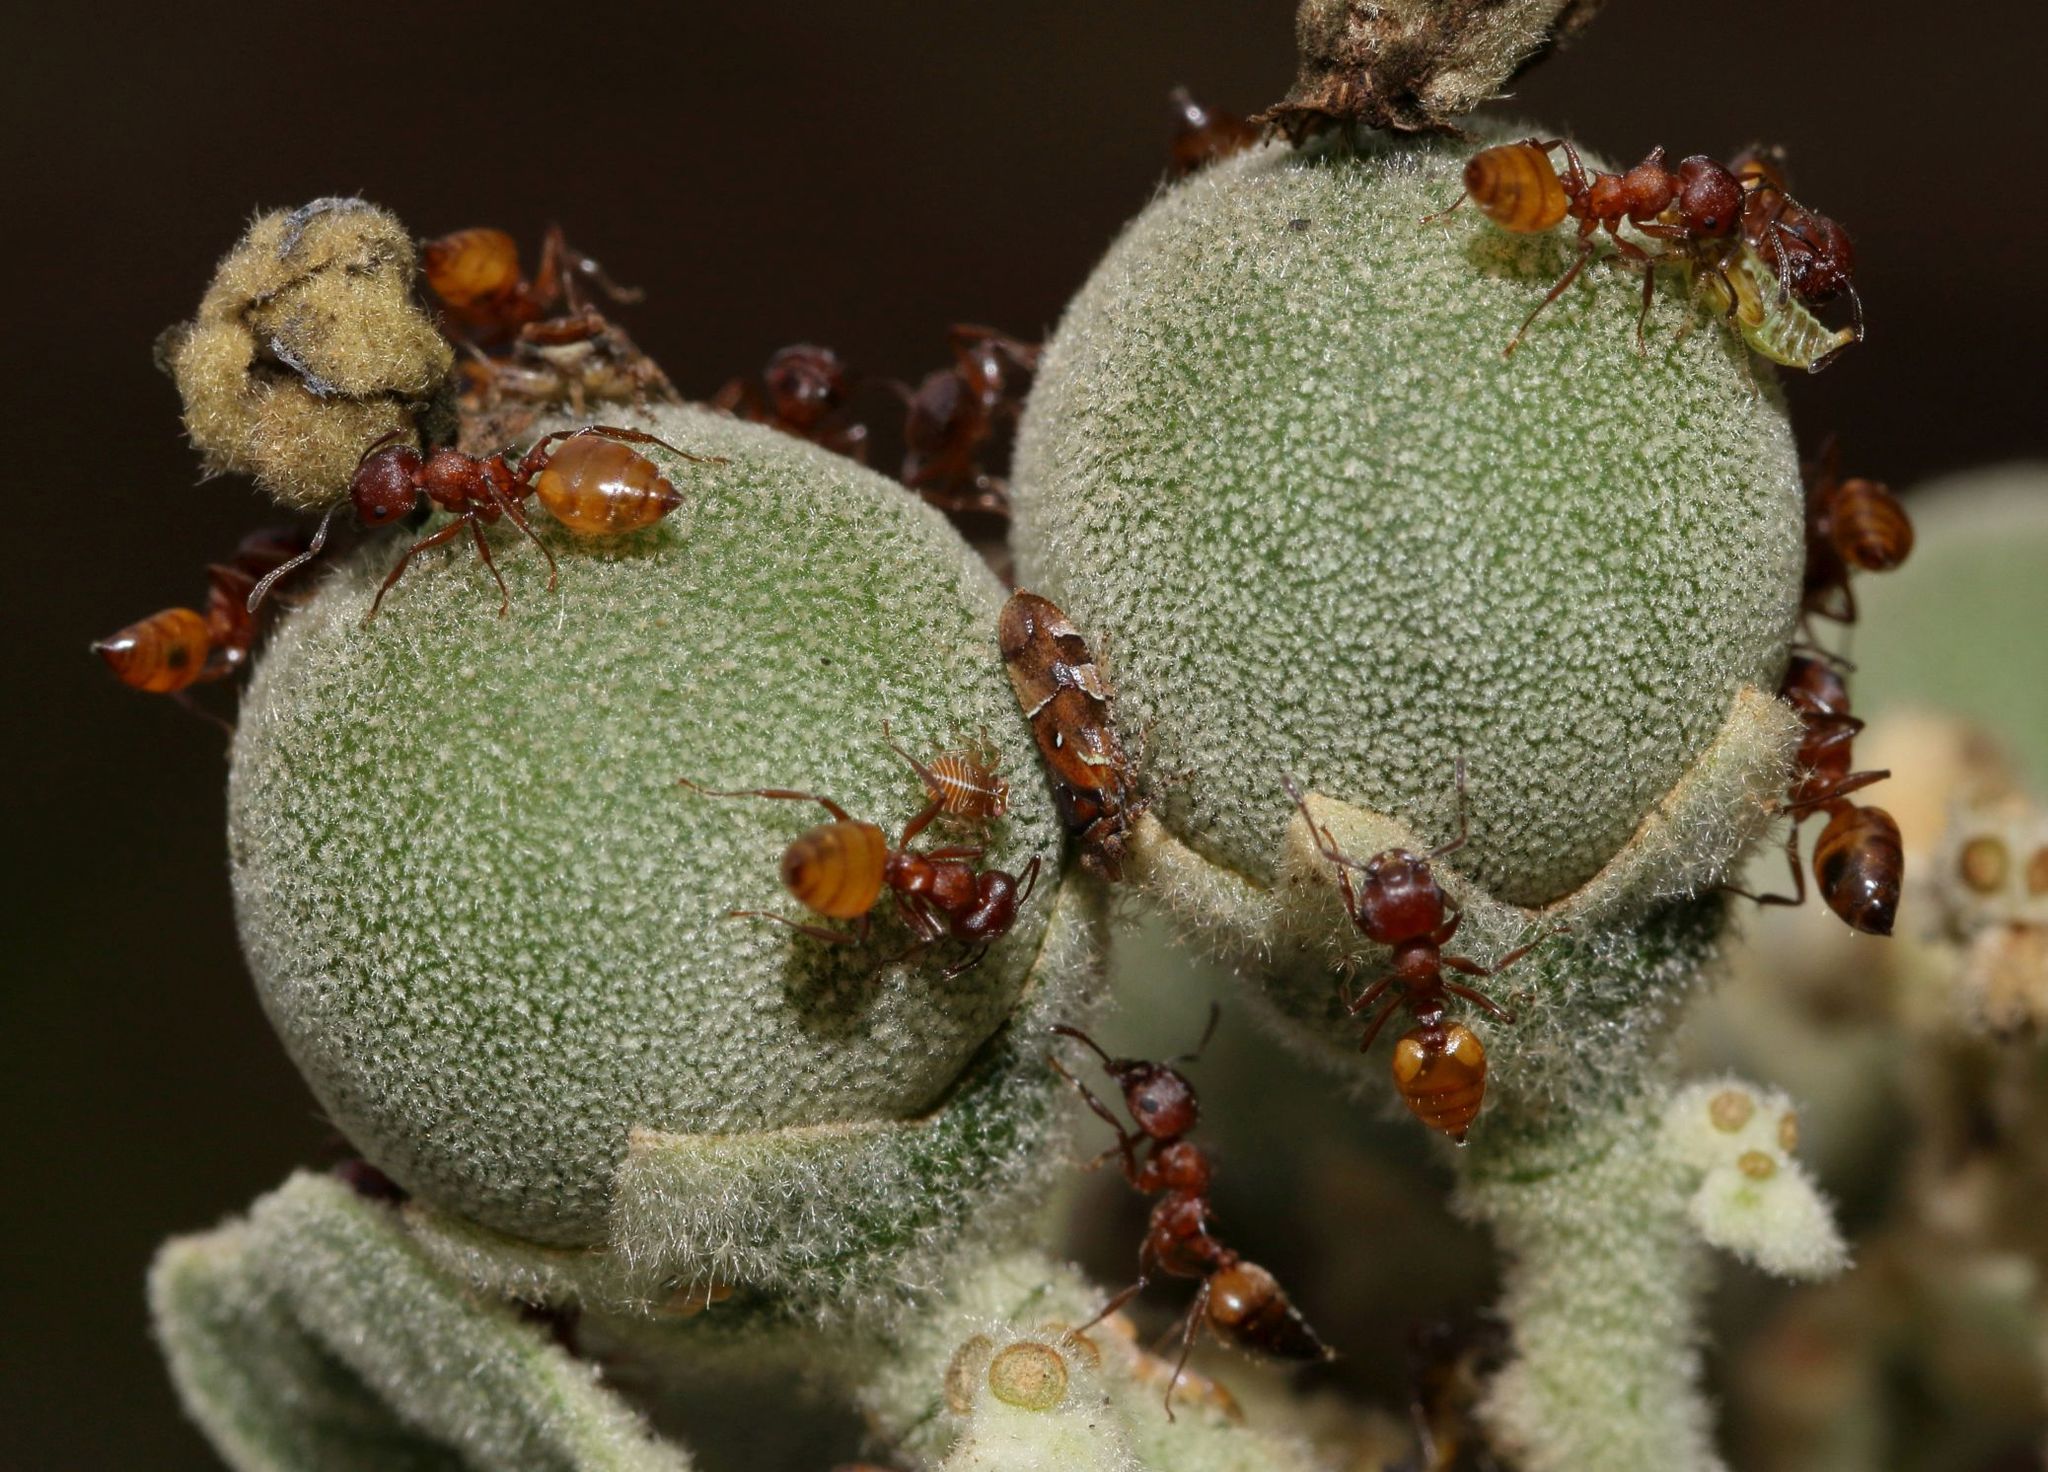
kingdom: Plantae
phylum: Tracheophyta
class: Magnoliopsida
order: Solanales
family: Solanaceae
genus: Solanum
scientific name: Solanum mauritianum
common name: Earleaf nightshade
